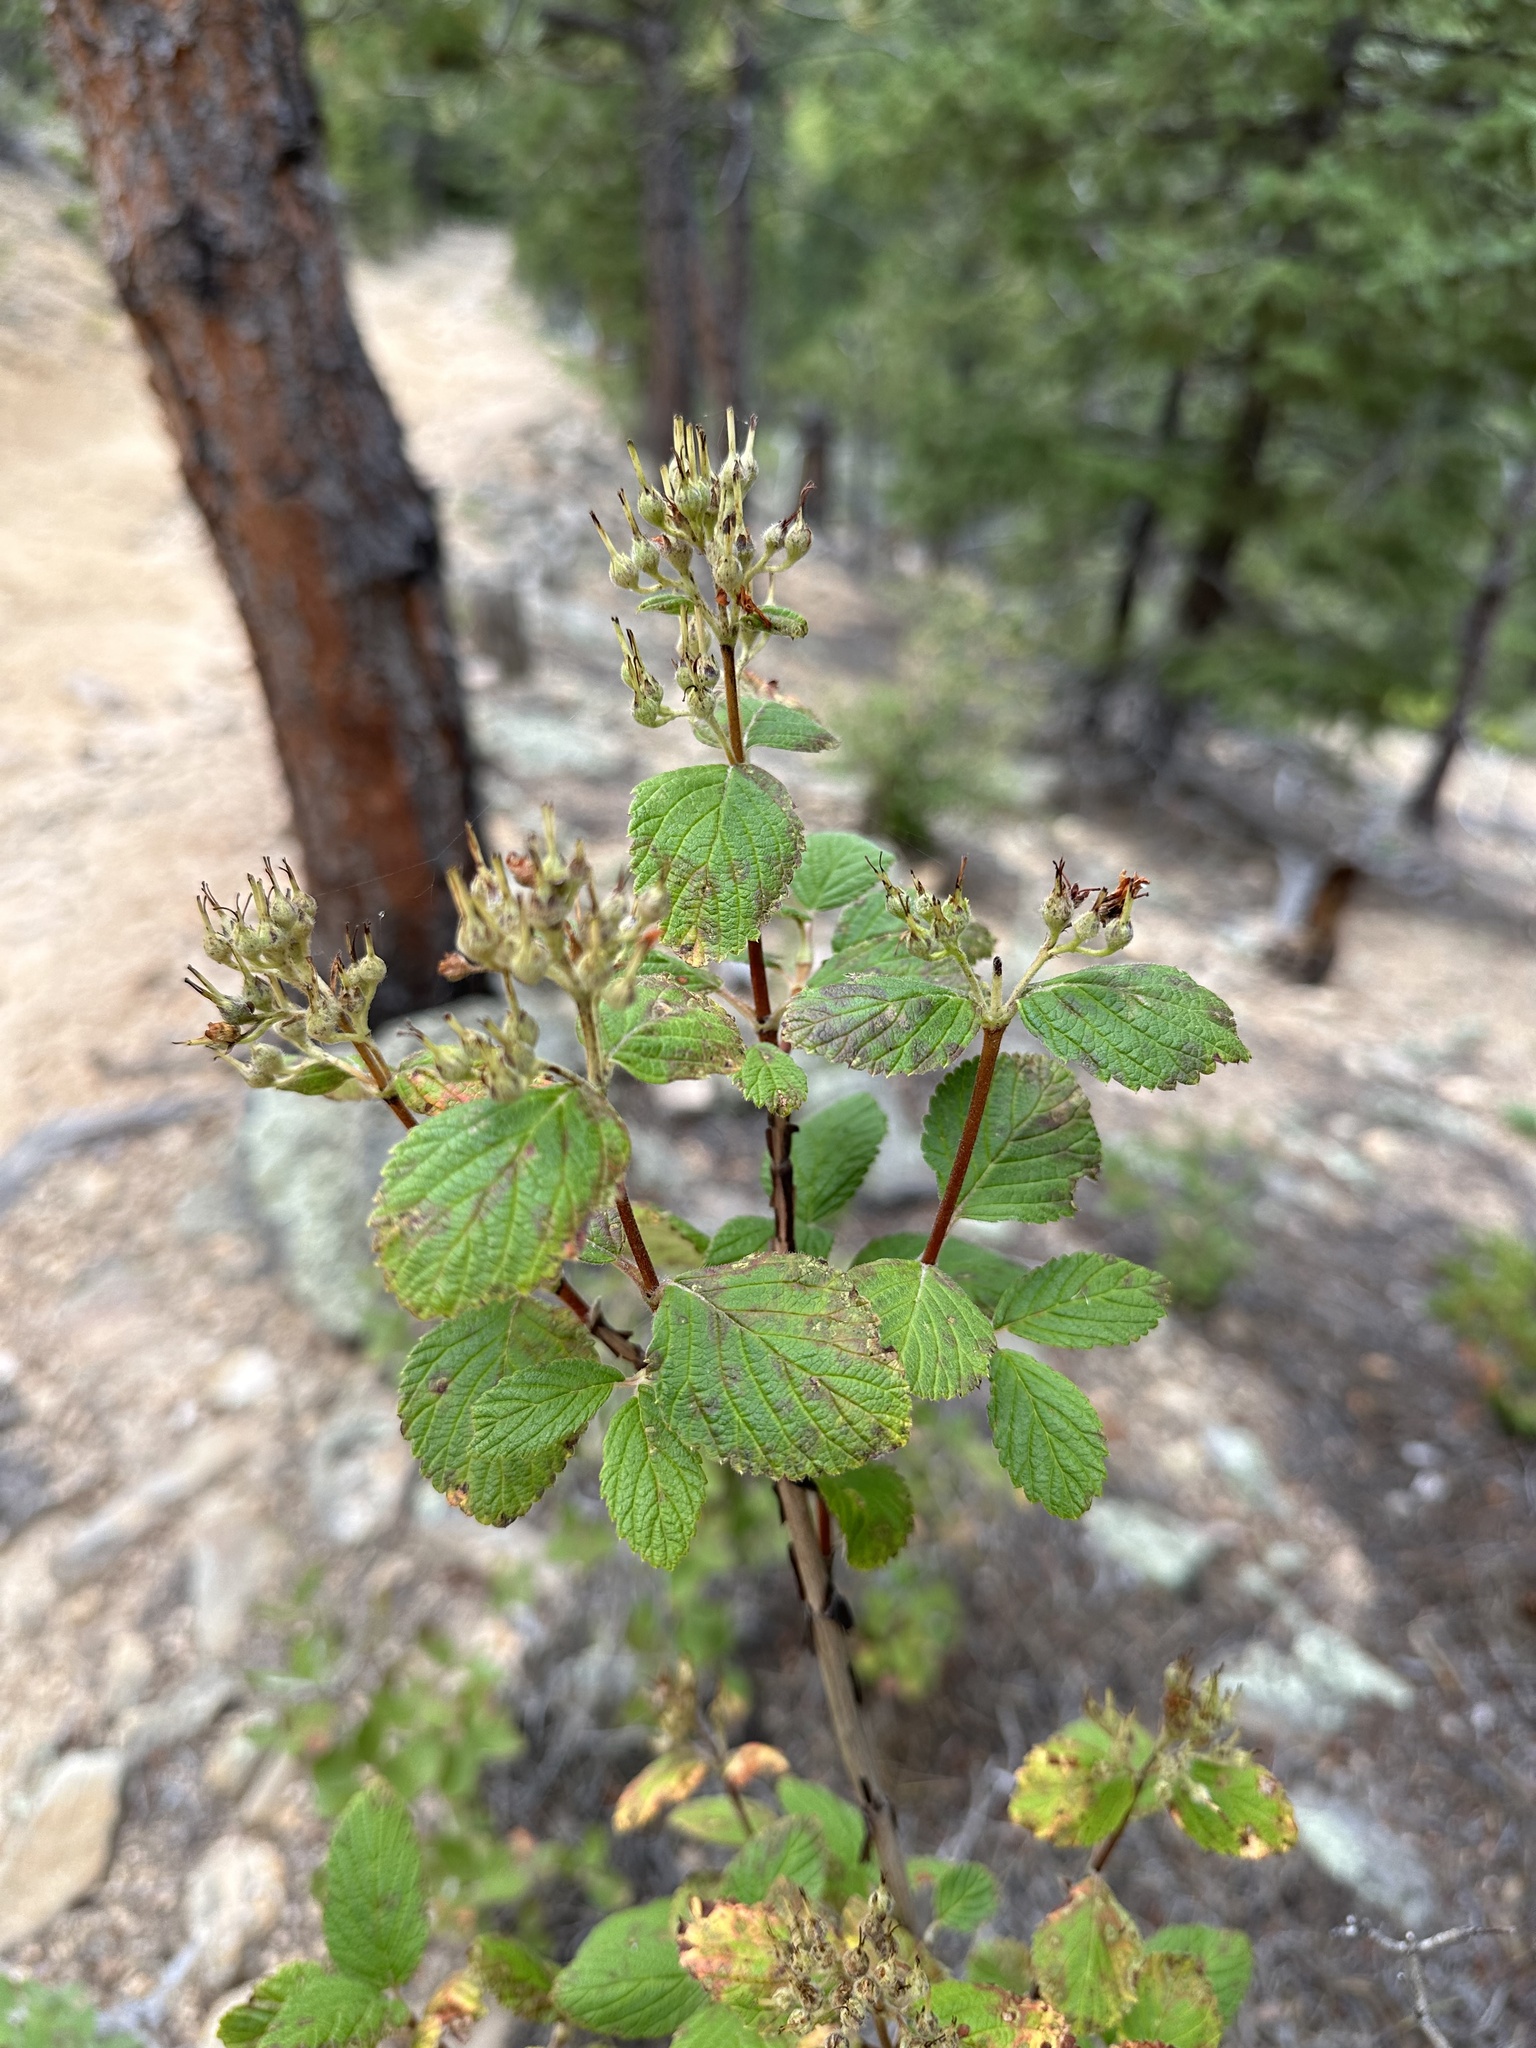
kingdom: Plantae
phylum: Tracheophyta
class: Magnoliopsida
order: Cornales
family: Hydrangeaceae
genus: Jamesia
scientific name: Jamesia americana
